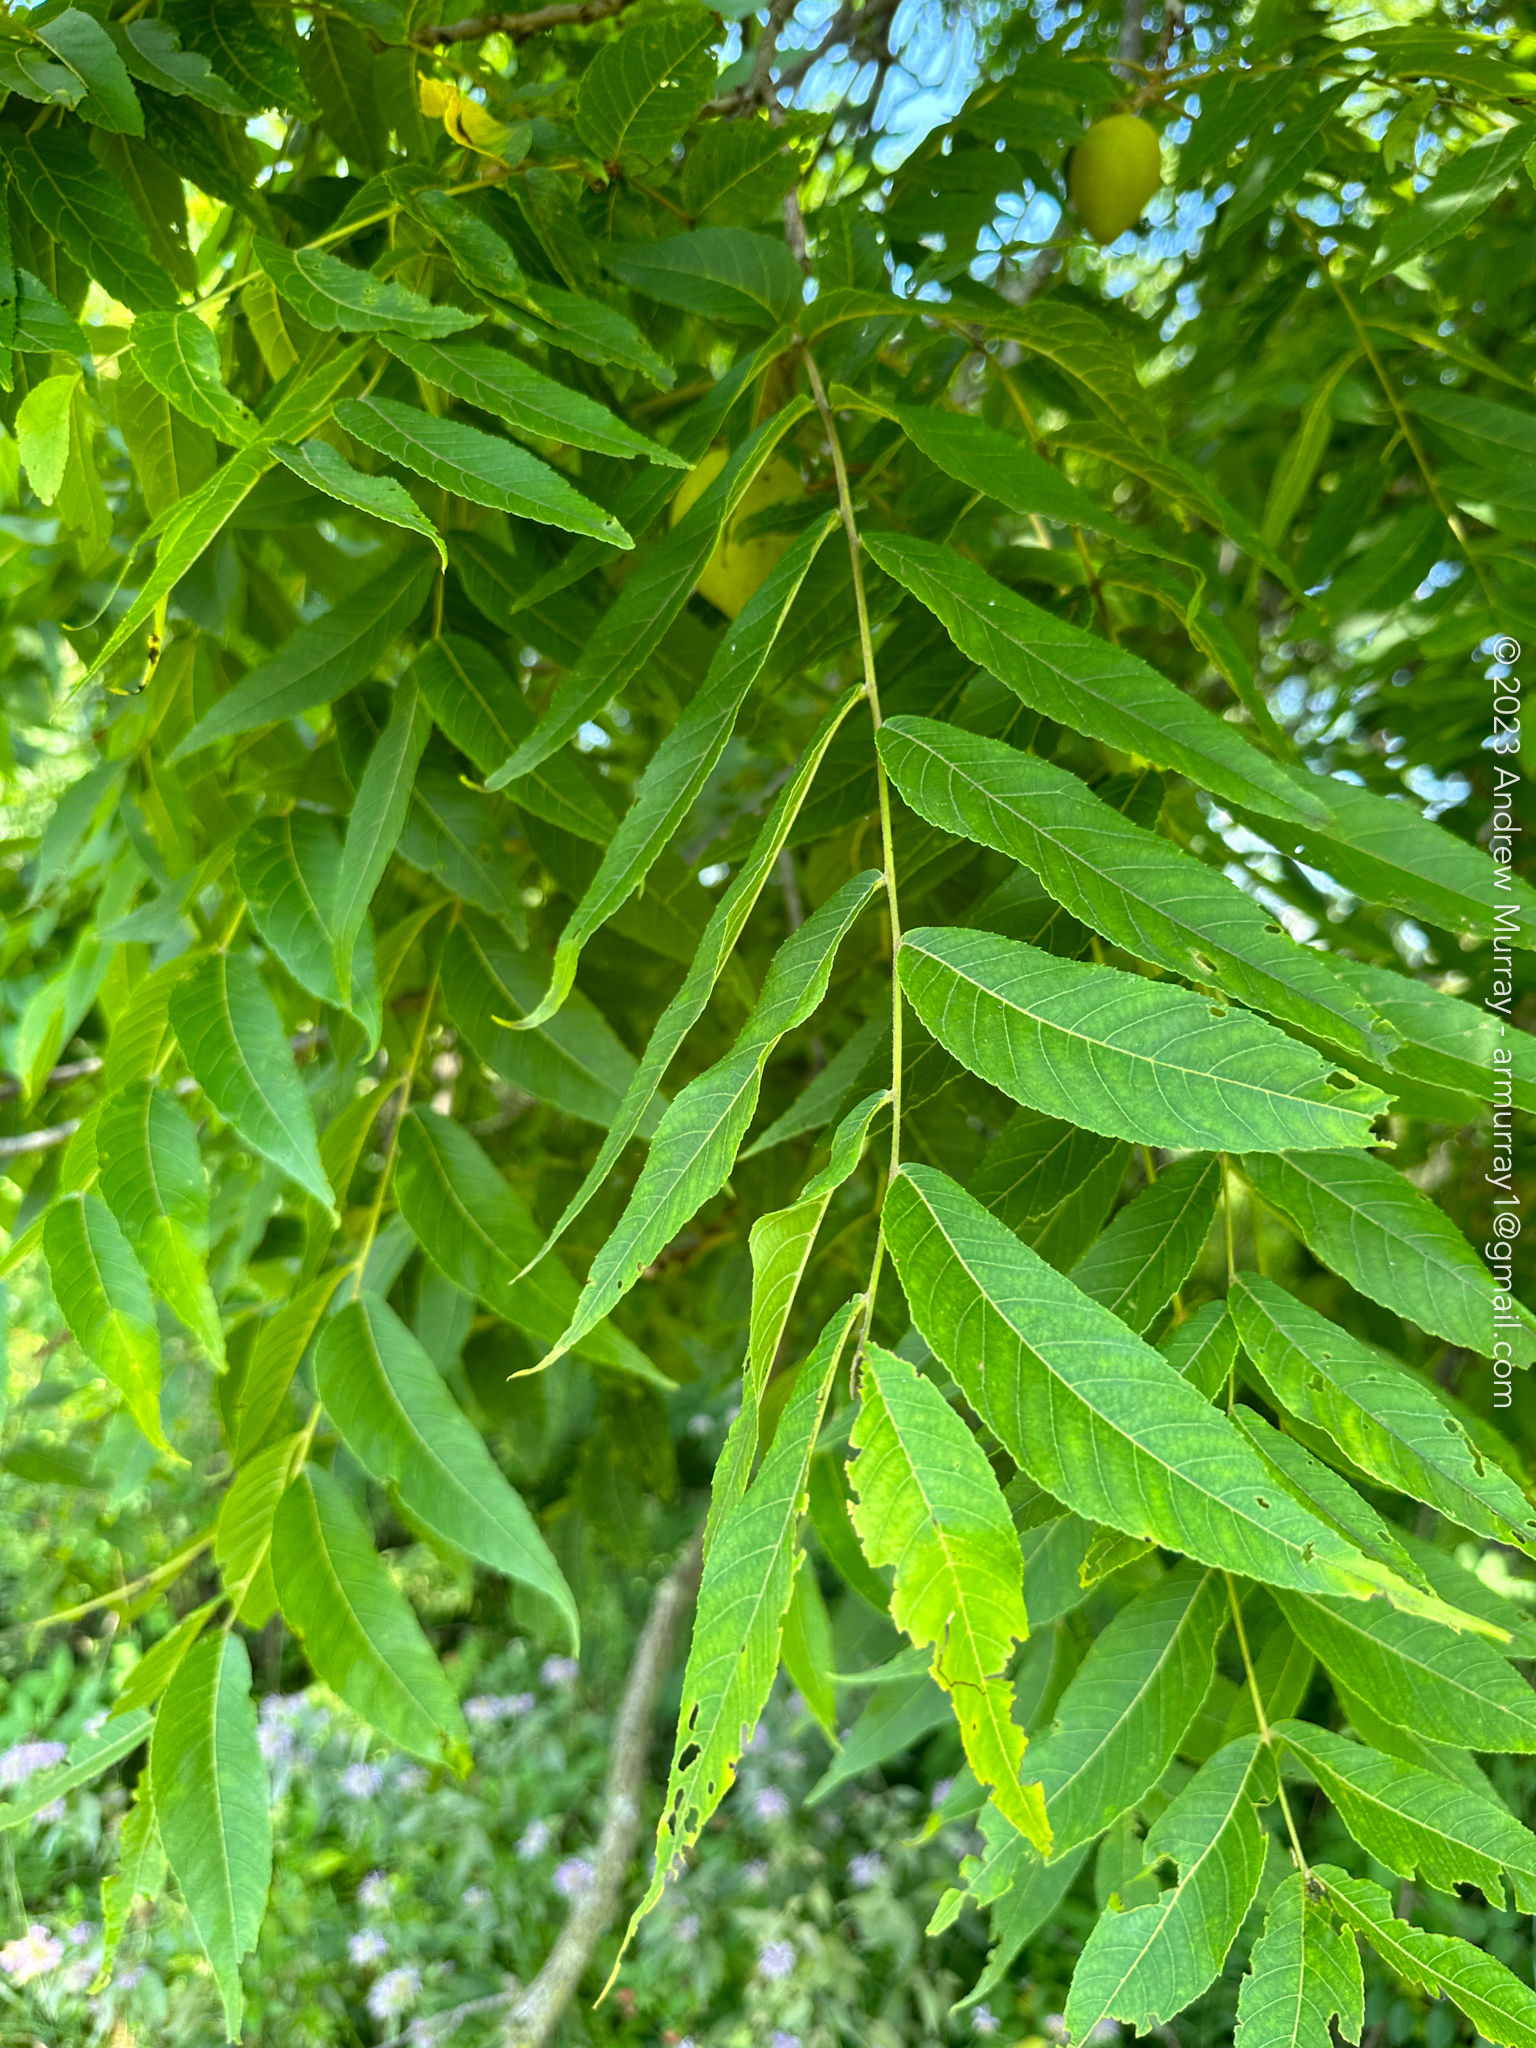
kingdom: Plantae
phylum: Tracheophyta
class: Magnoliopsida
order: Fagales
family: Juglandaceae
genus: Juglans
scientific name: Juglans nigra
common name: Black walnut
